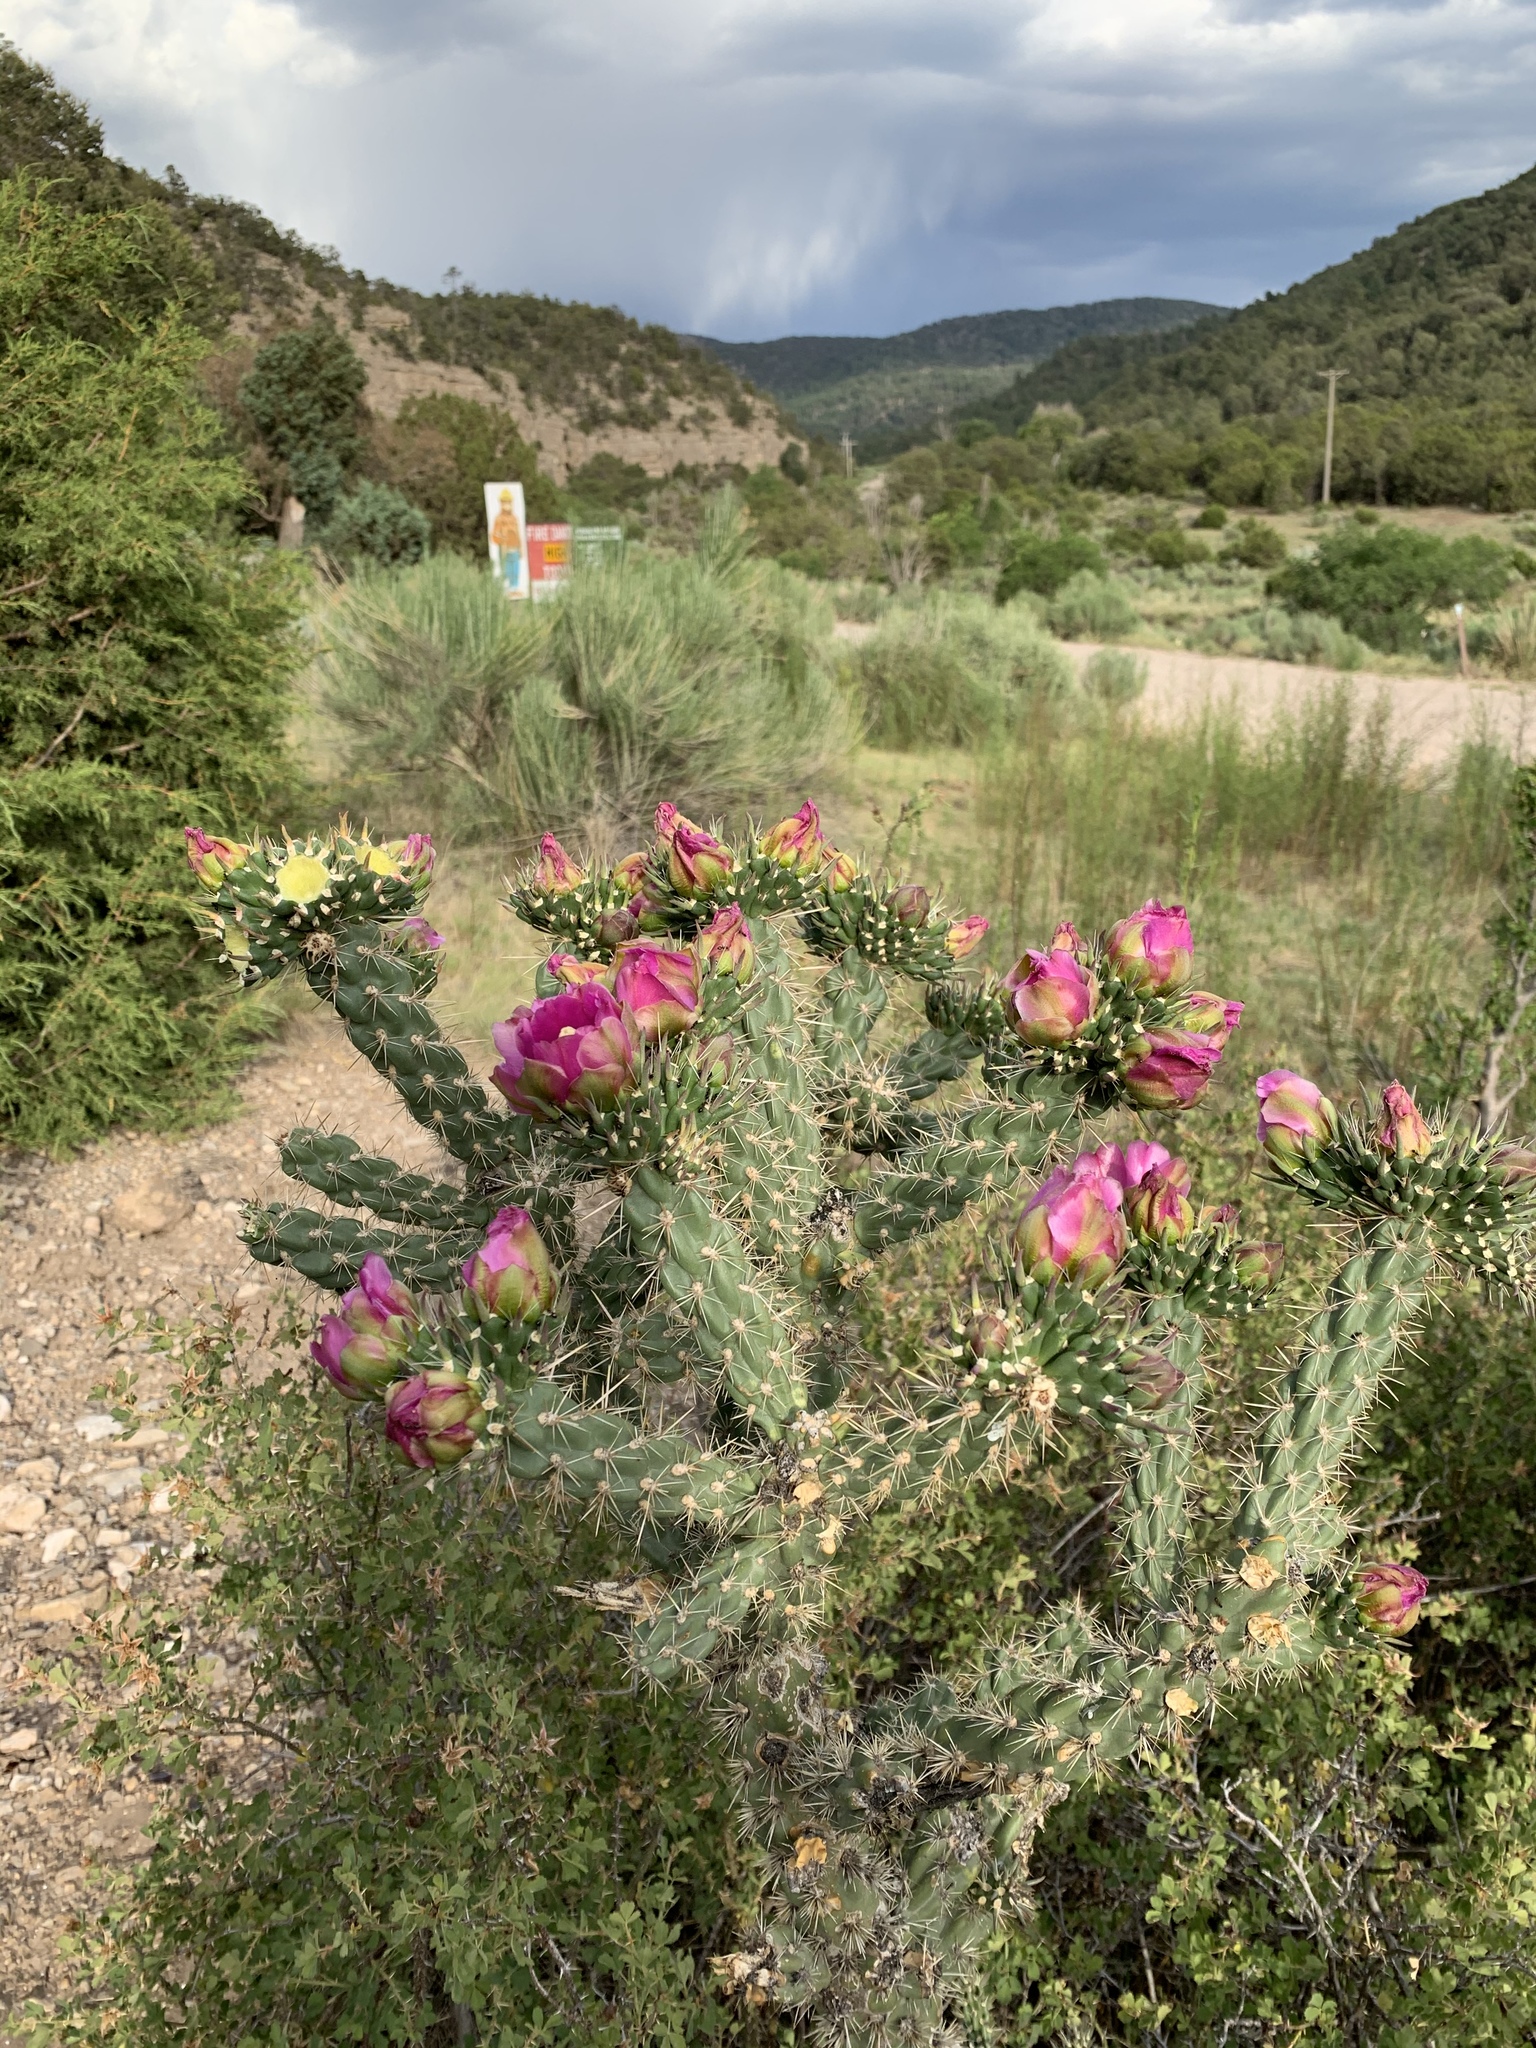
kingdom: Plantae
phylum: Tracheophyta
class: Magnoliopsida
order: Caryophyllales
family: Cactaceae
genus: Cylindropuntia
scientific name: Cylindropuntia imbricata
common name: Candelabrum cactus
